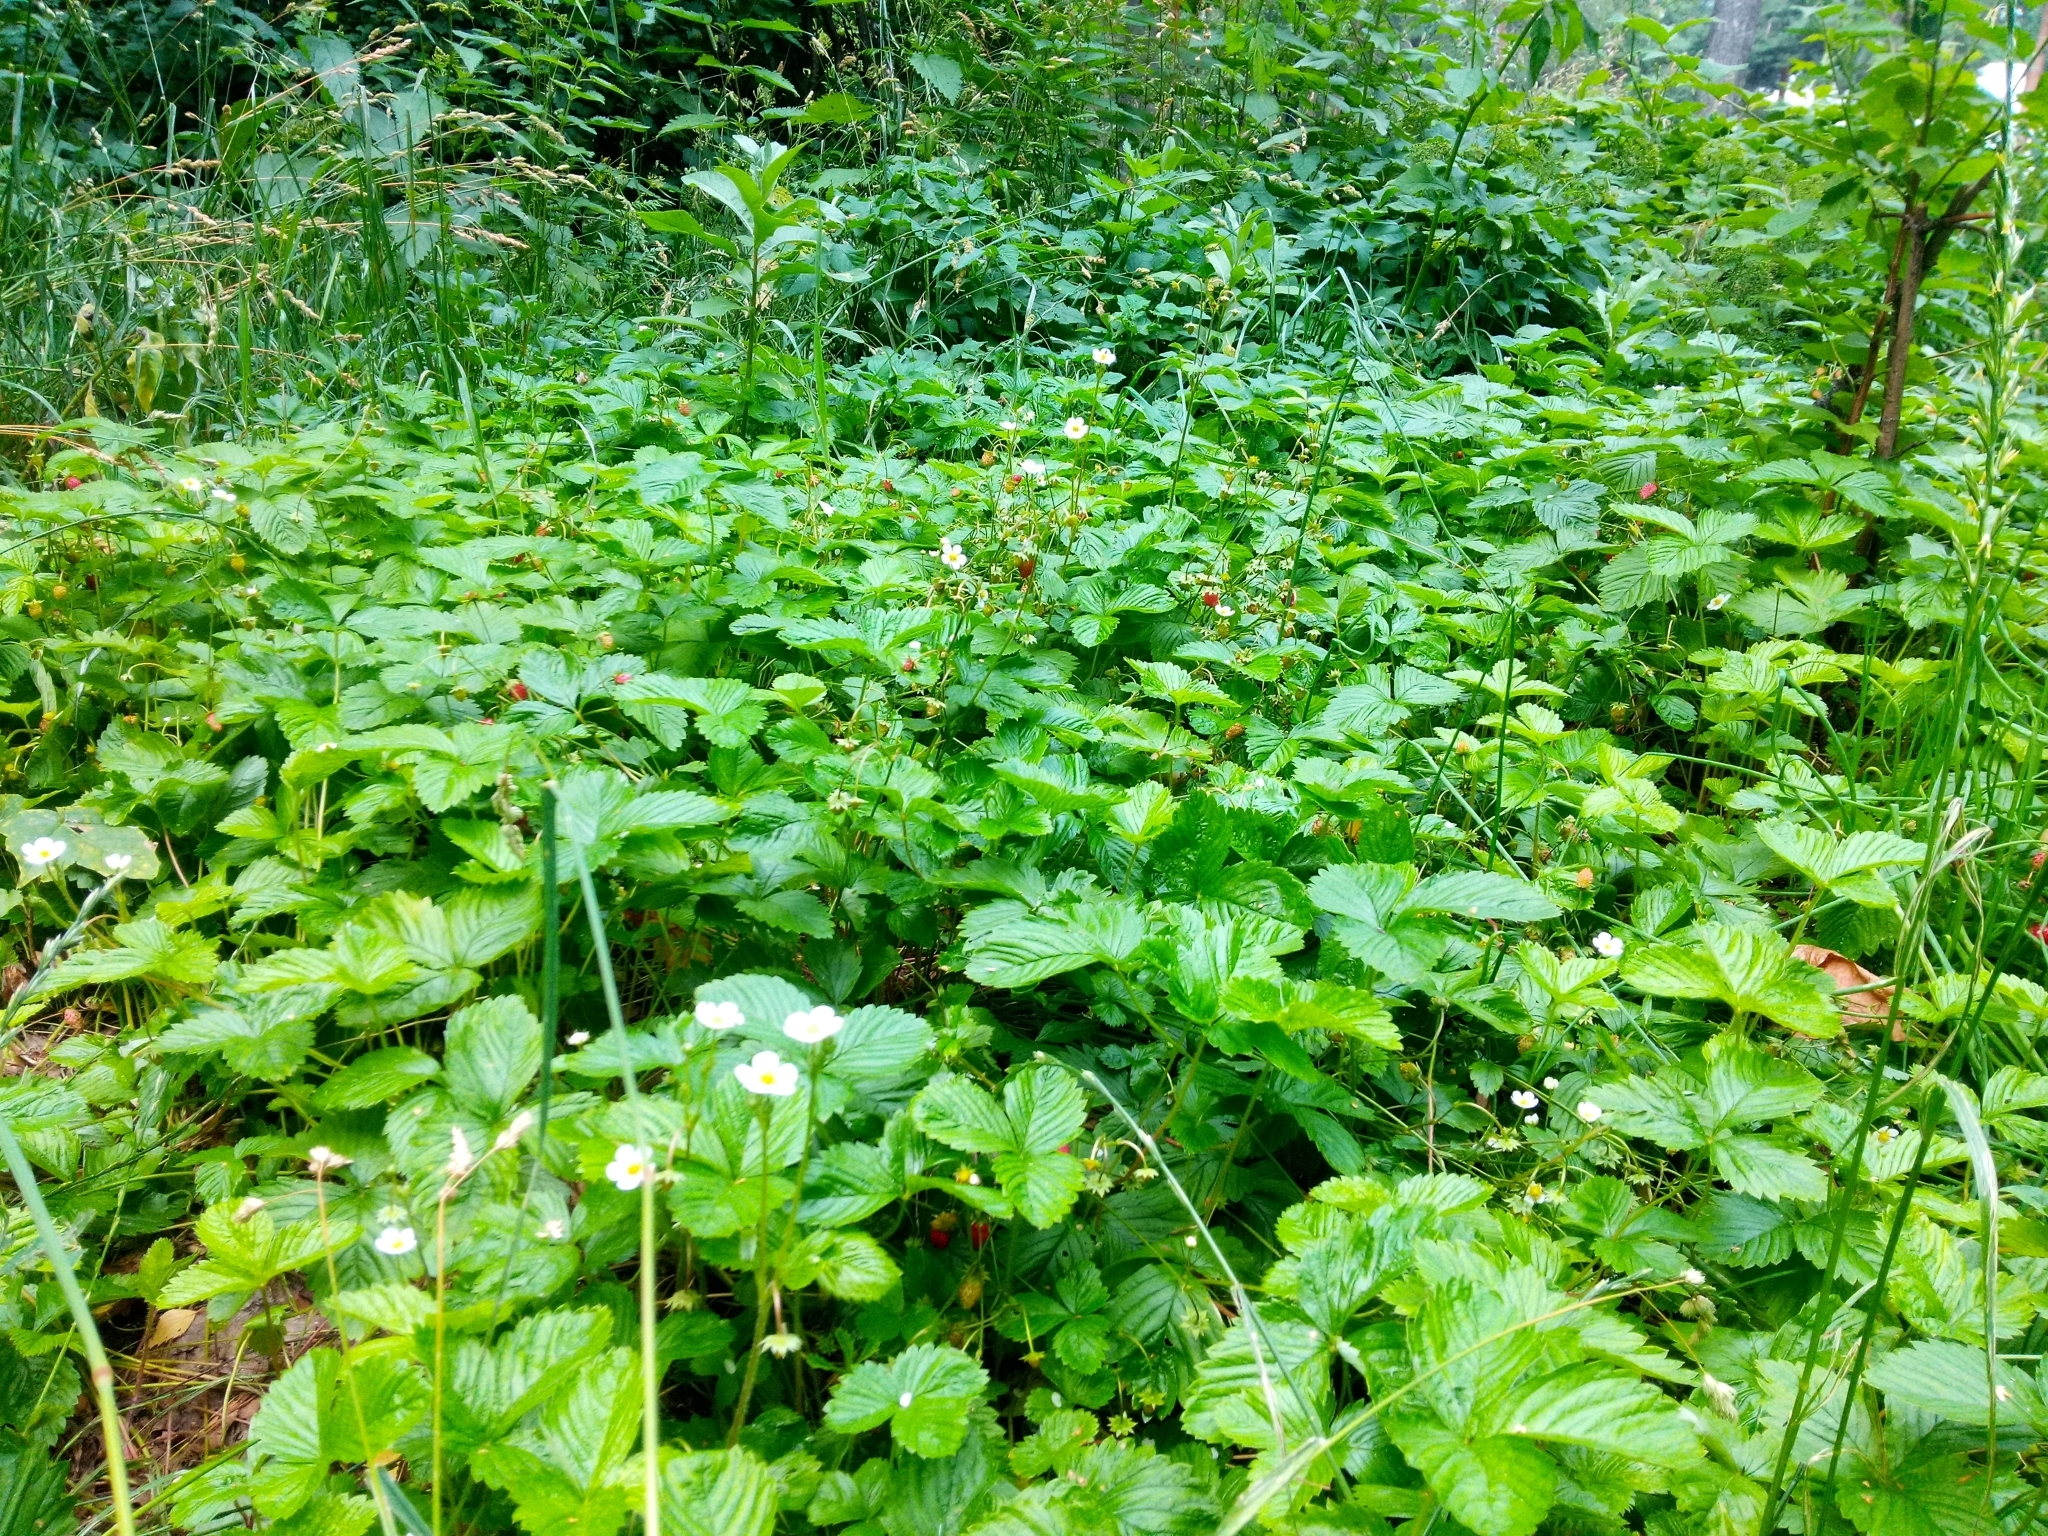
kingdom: Plantae
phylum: Tracheophyta
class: Magnoliopsida
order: Rosales
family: Rosaceae
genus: Fragaria
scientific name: Fragaria vesca
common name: Wild strawberry
